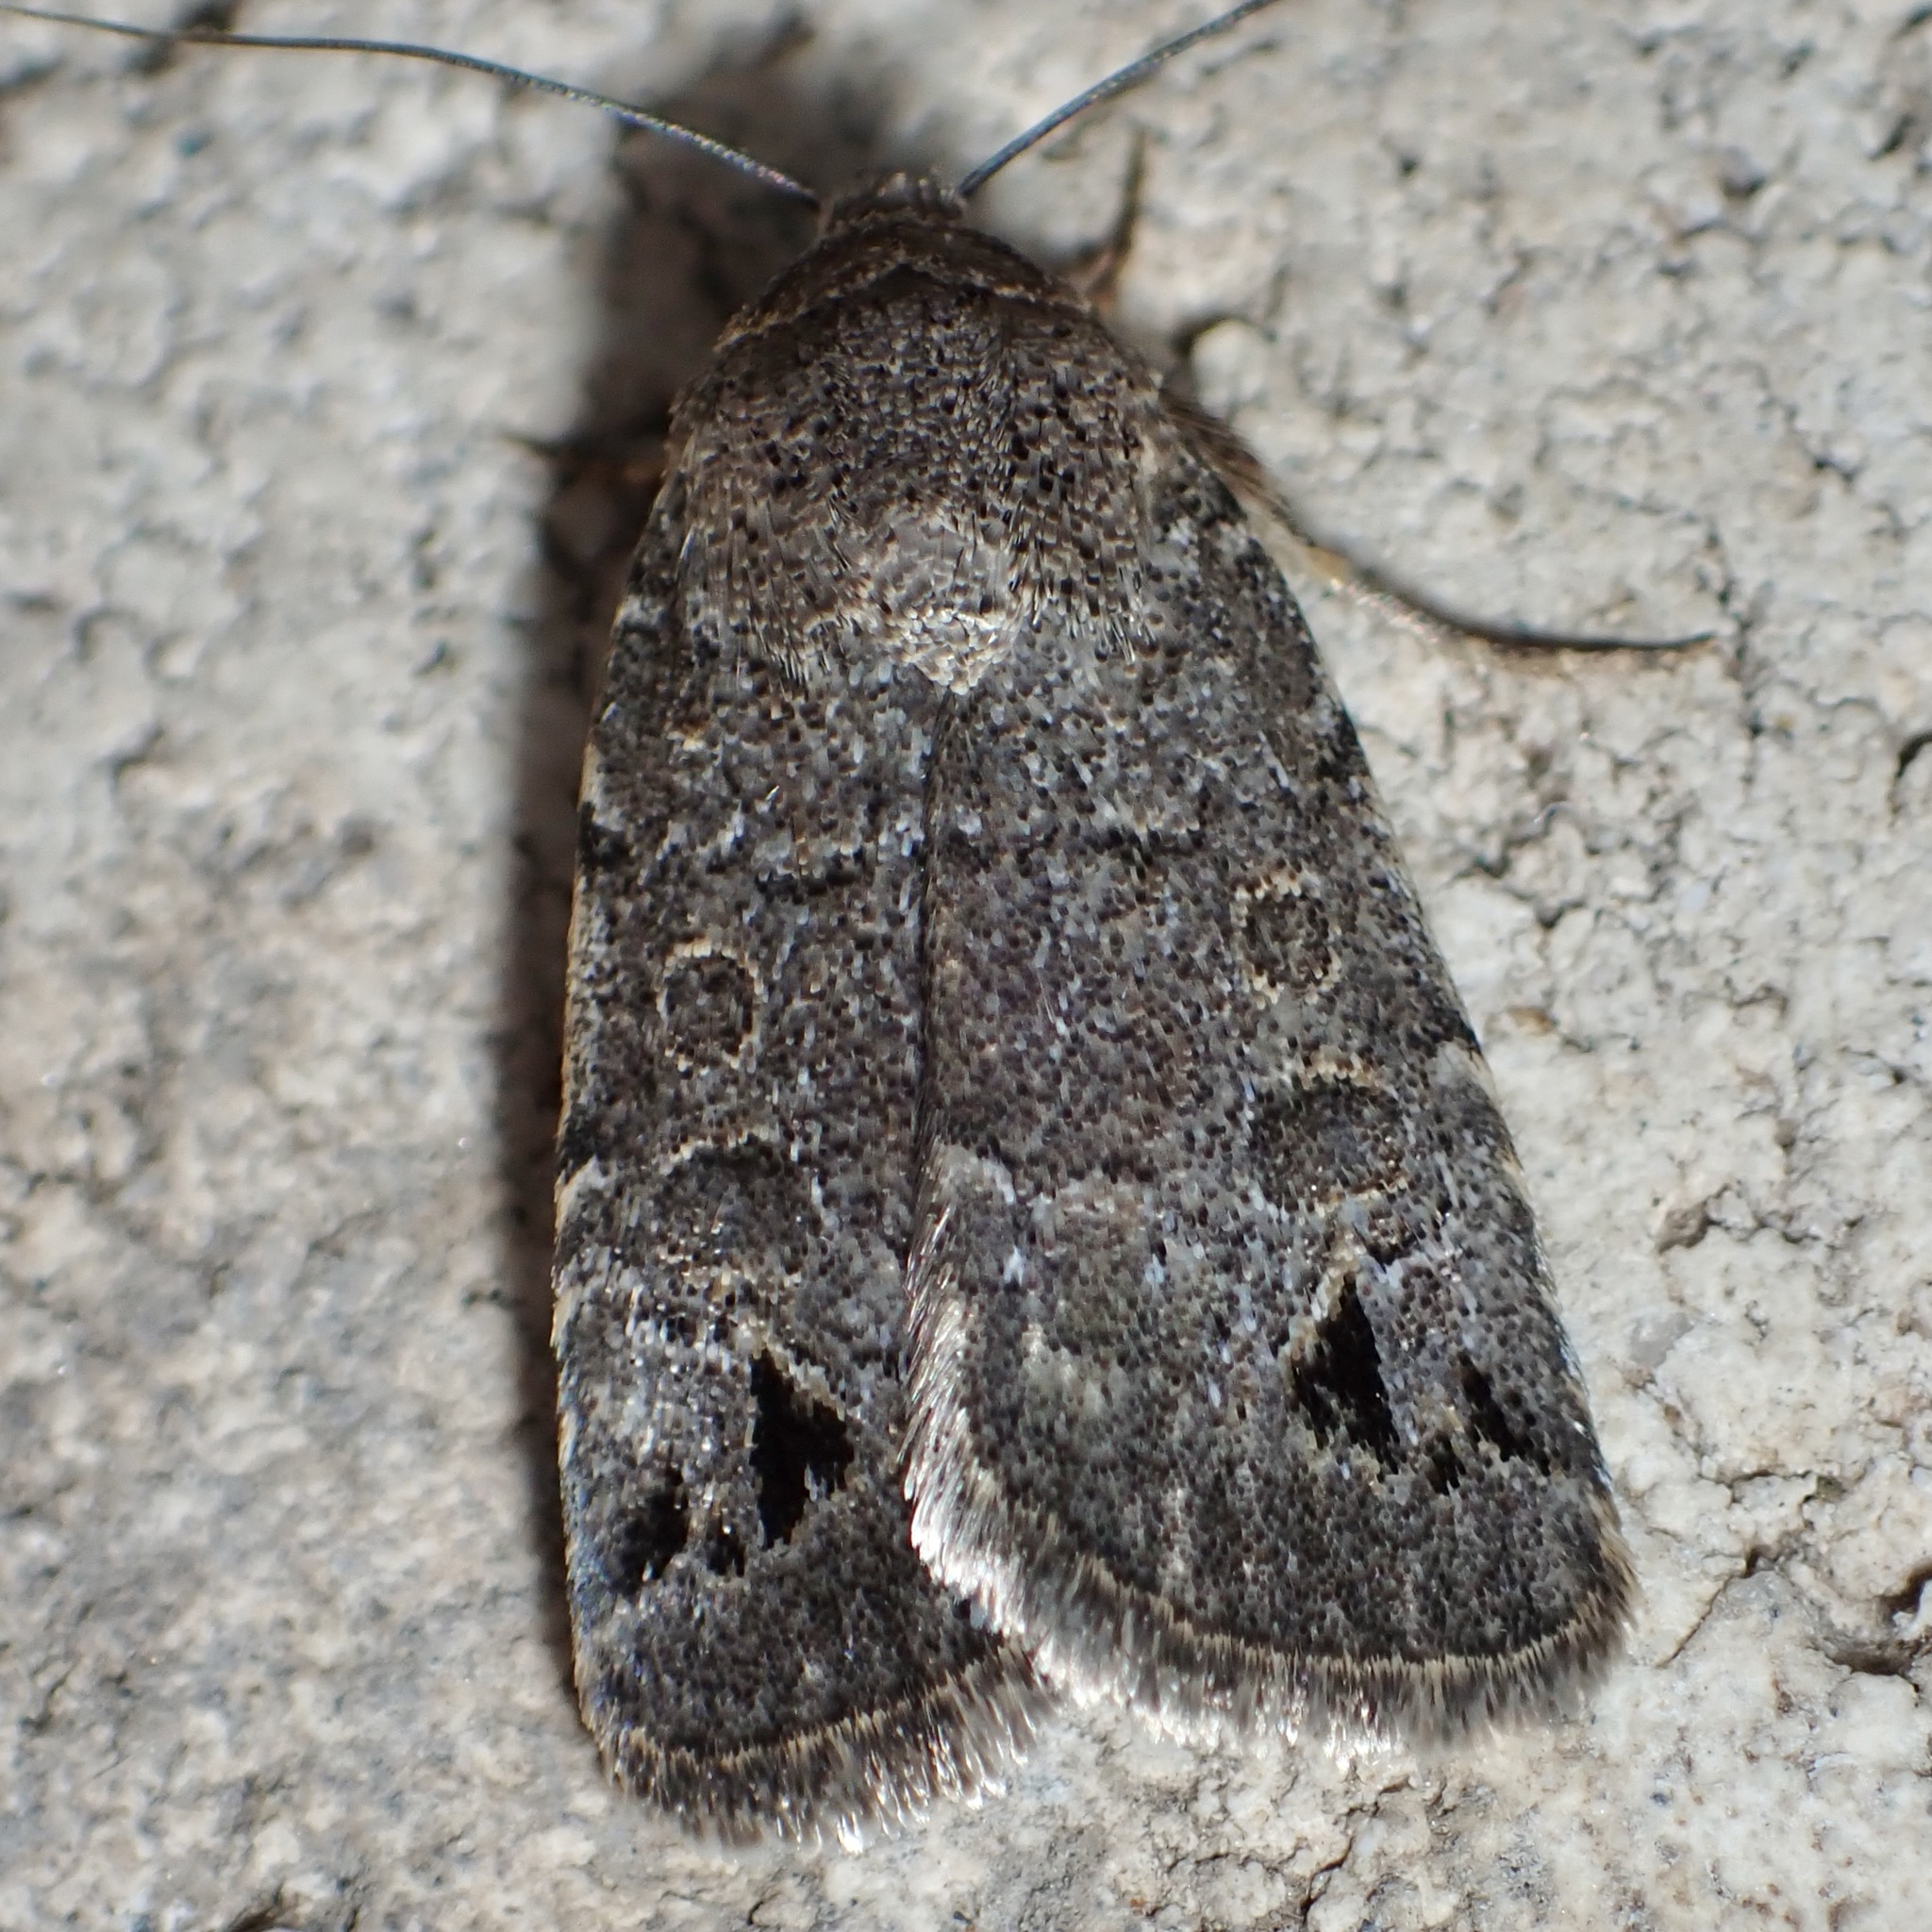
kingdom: Animalia
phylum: Arthropoda
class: Insecta
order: Lepidoptera
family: Noctuidae
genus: Anorthodes
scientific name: Anorthodes triquetra
